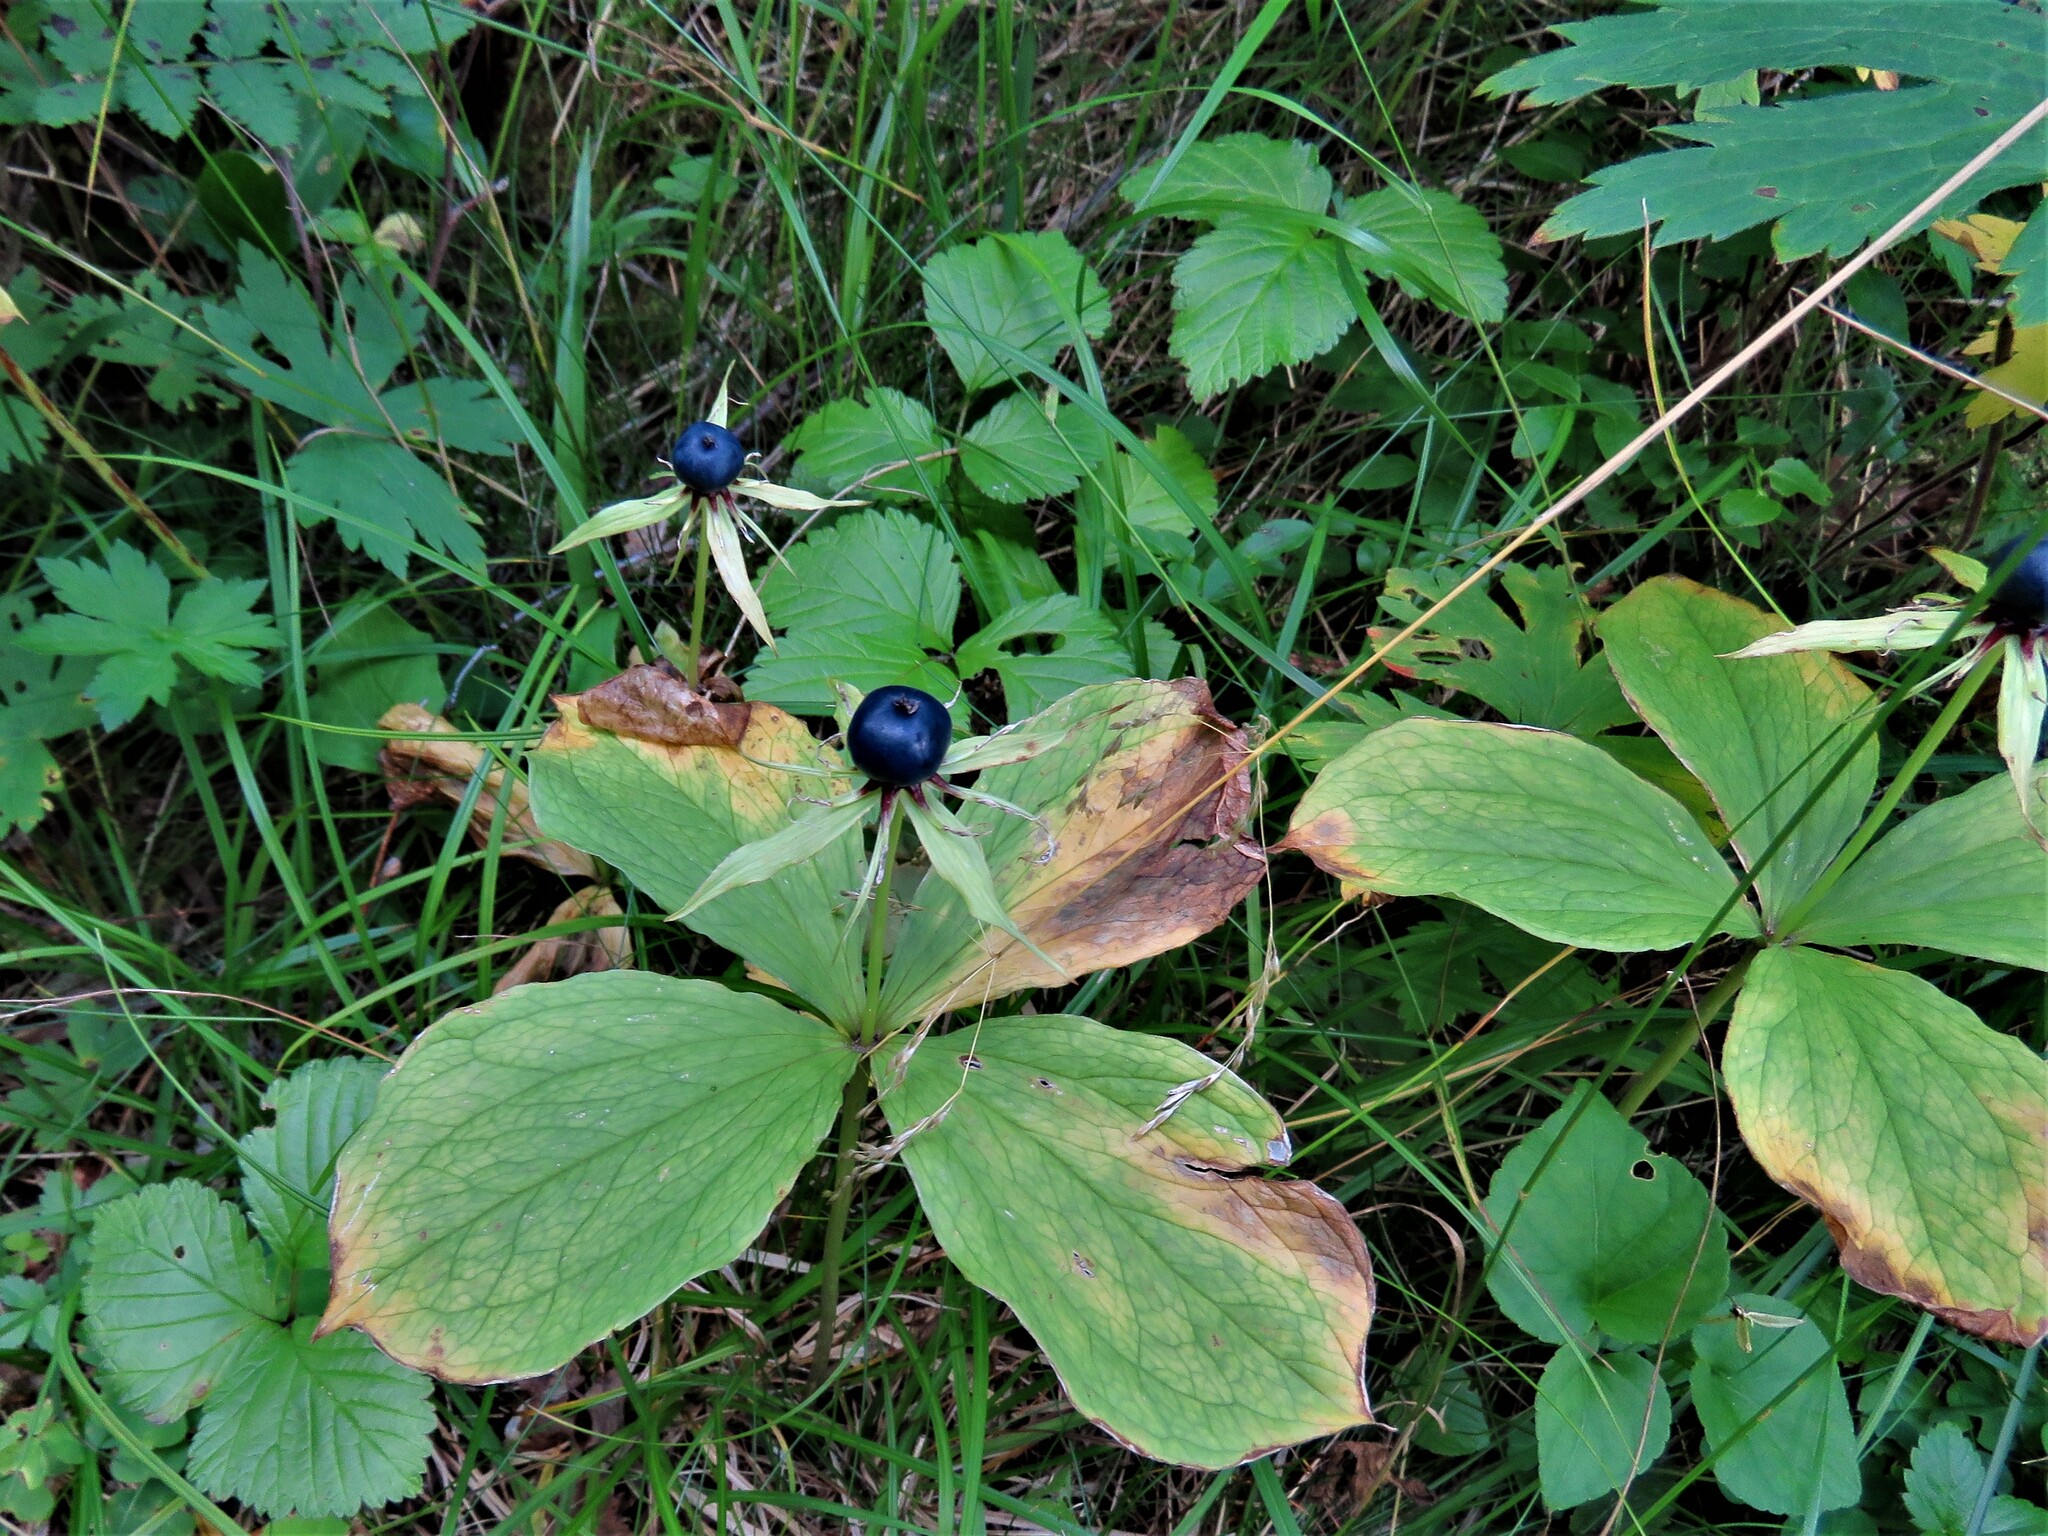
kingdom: Plantae
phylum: Tracheophyta
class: Liliopsida
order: Liliales
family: Melanthiaceae
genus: Paris
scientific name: Paris quadrifolia
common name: Herb-paris
